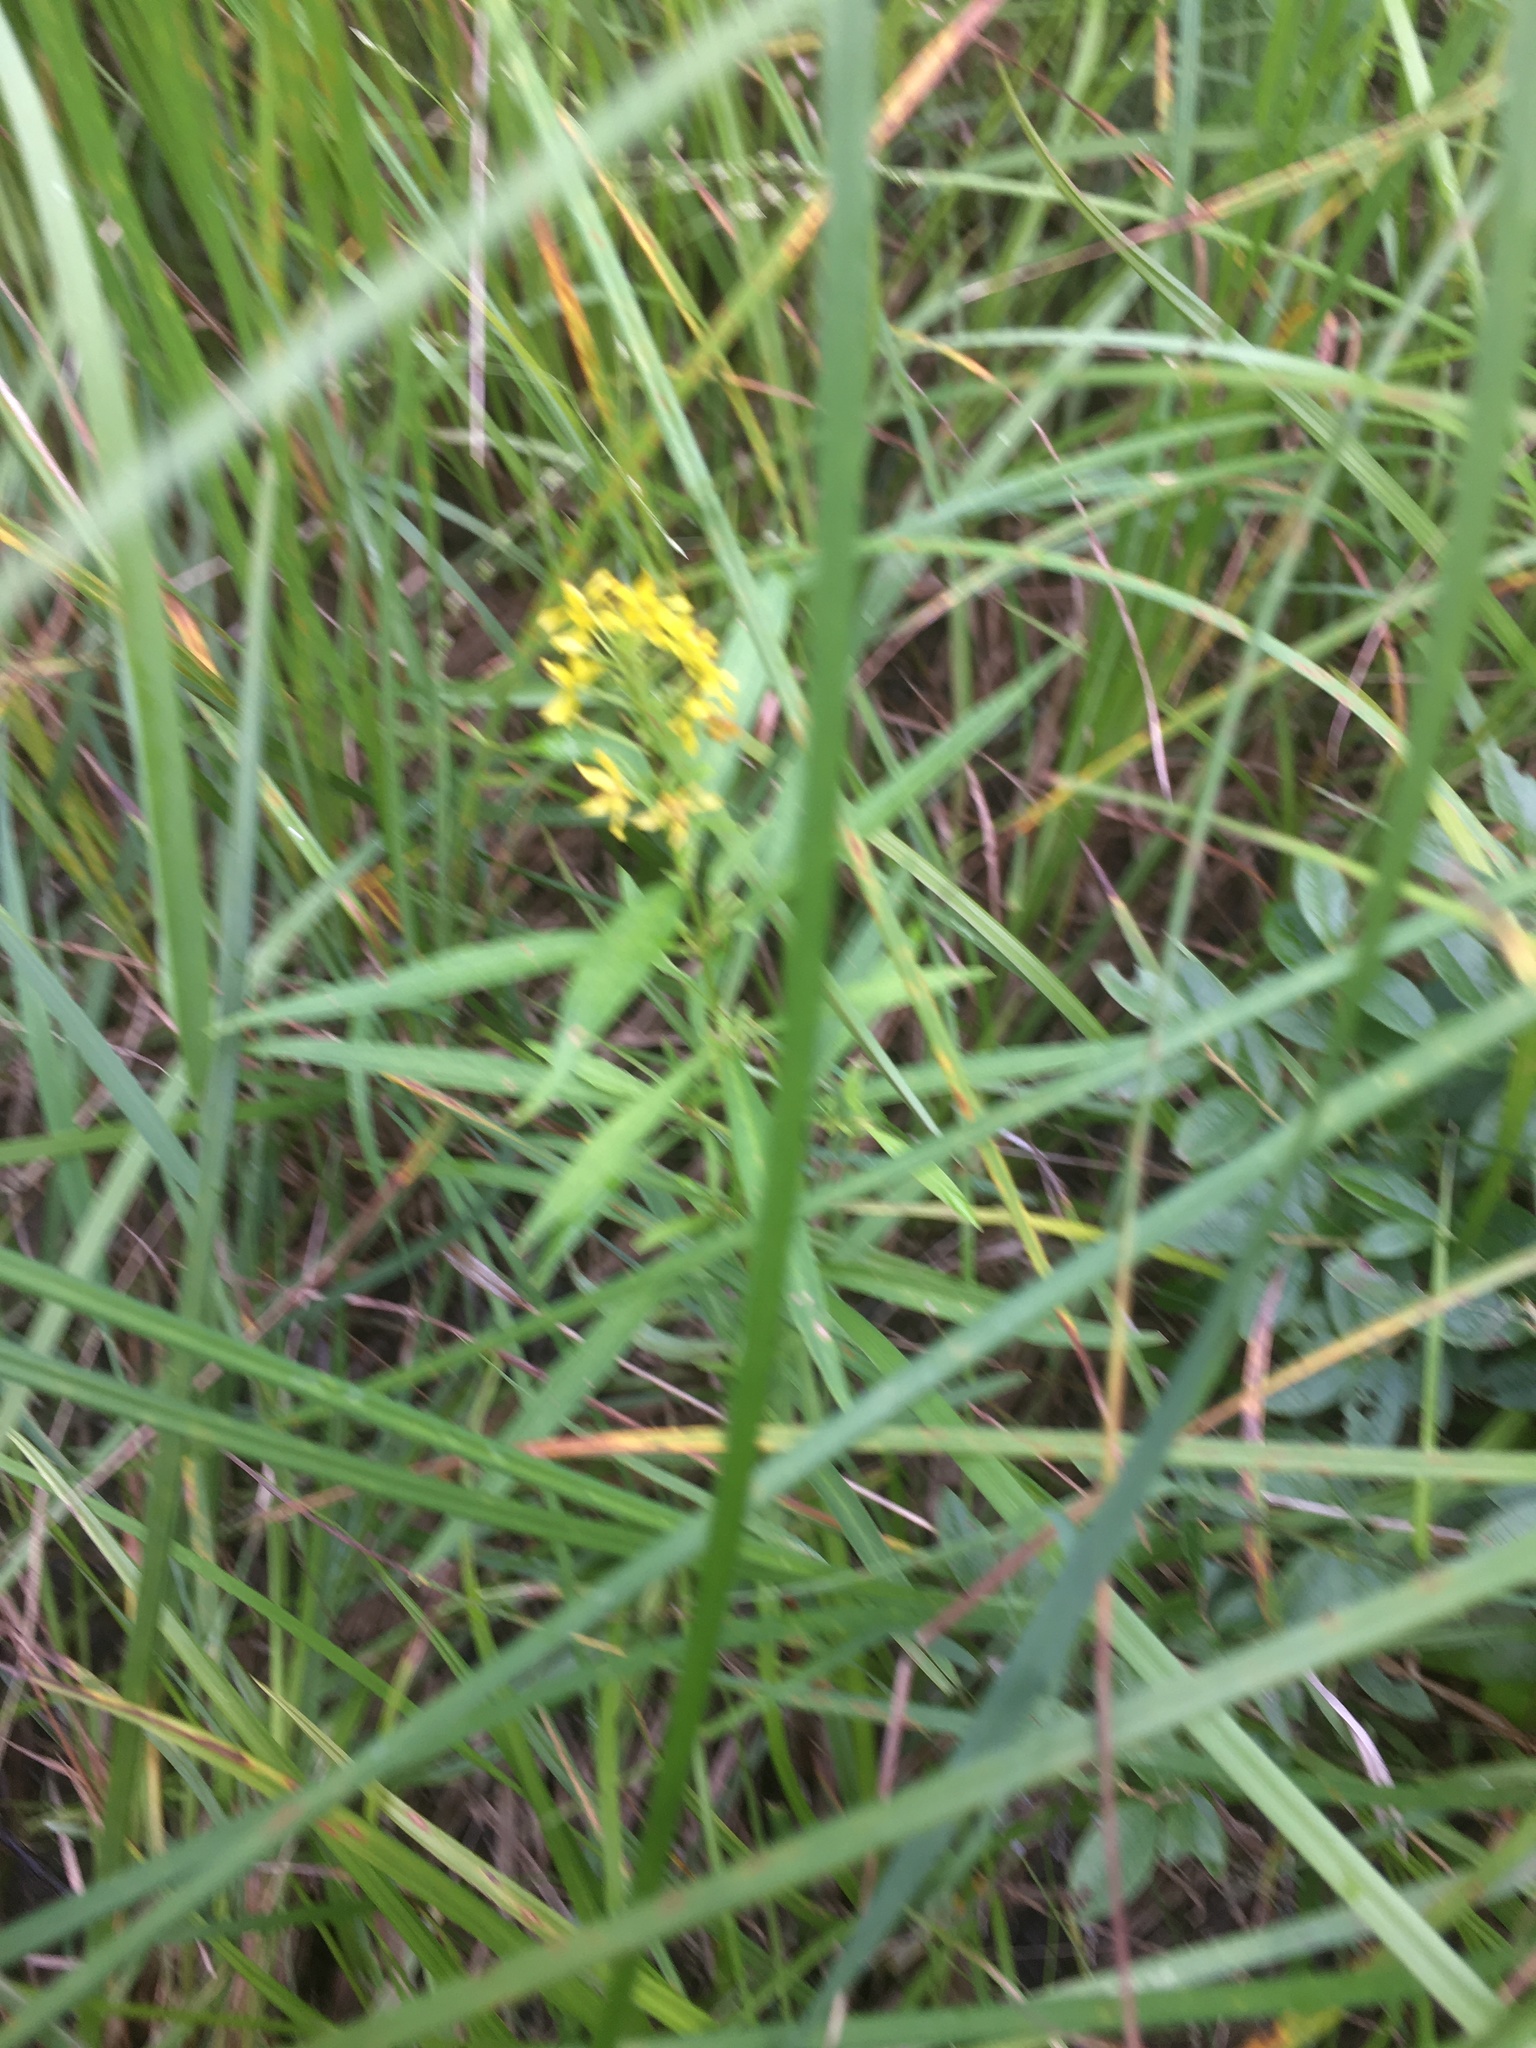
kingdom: Plantae
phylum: Tracheophyta
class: Magnoliopsida
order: Ericales
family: Primulaceae
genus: Lysimachia
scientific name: Lysimachia terrestris
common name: Lake loosestrife
